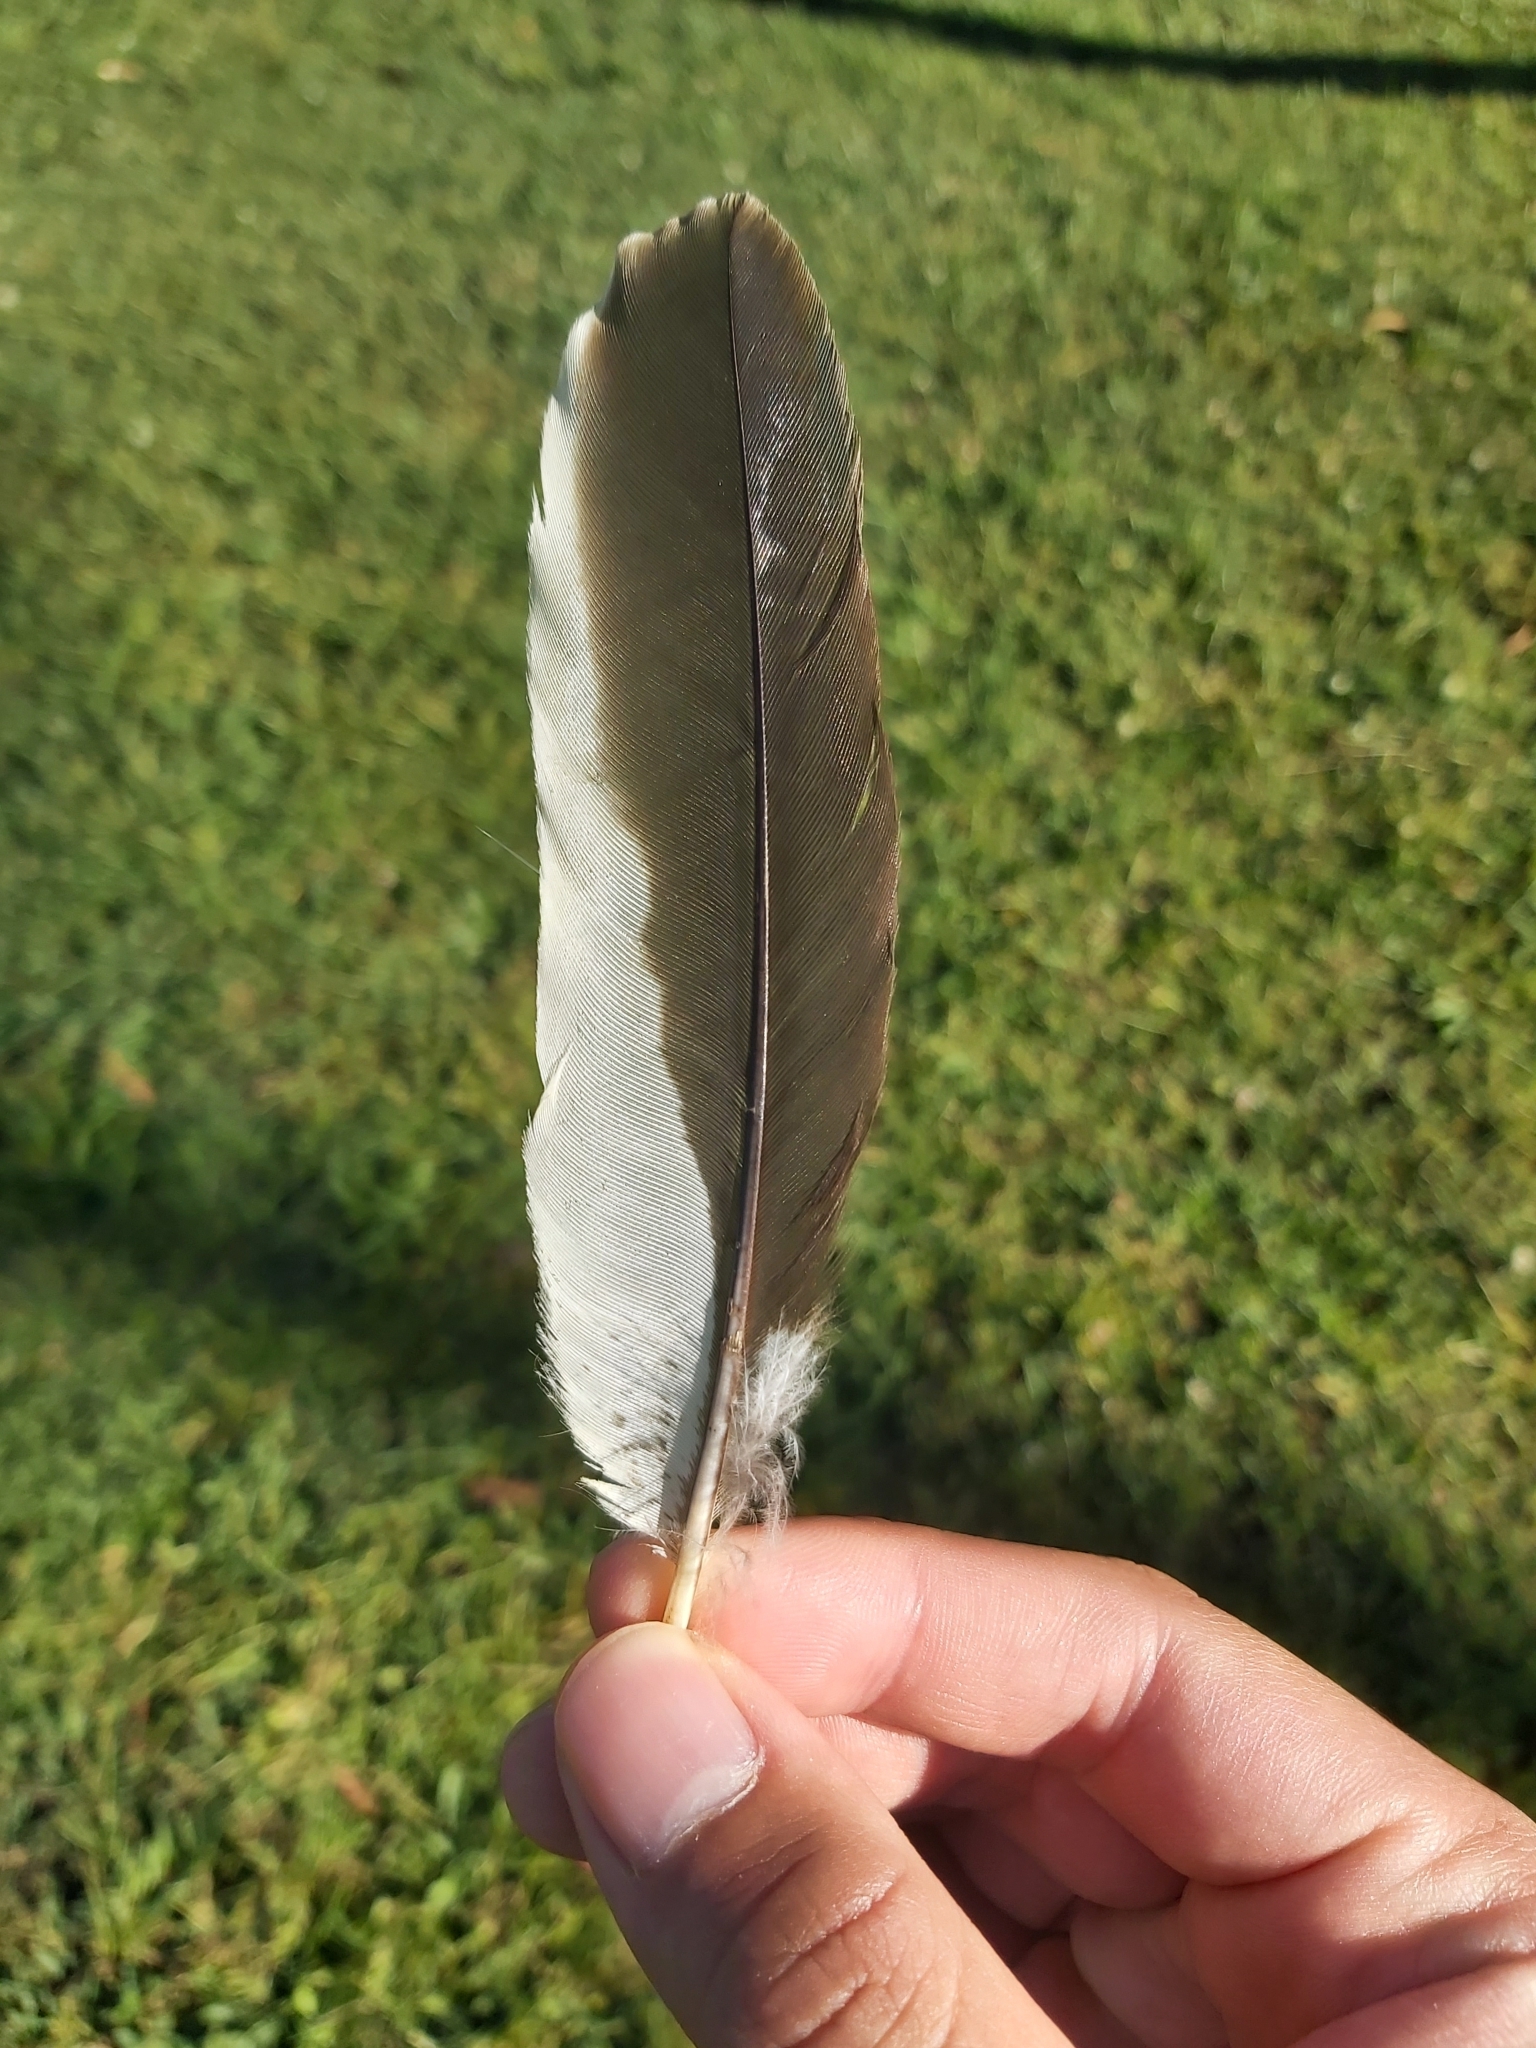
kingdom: Animalia
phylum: Chordata
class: Aves
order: Coraciiformes
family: Alcedinidae
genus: Dacelo
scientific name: Dacelo novaeguineae
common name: Laughing kookaburra
